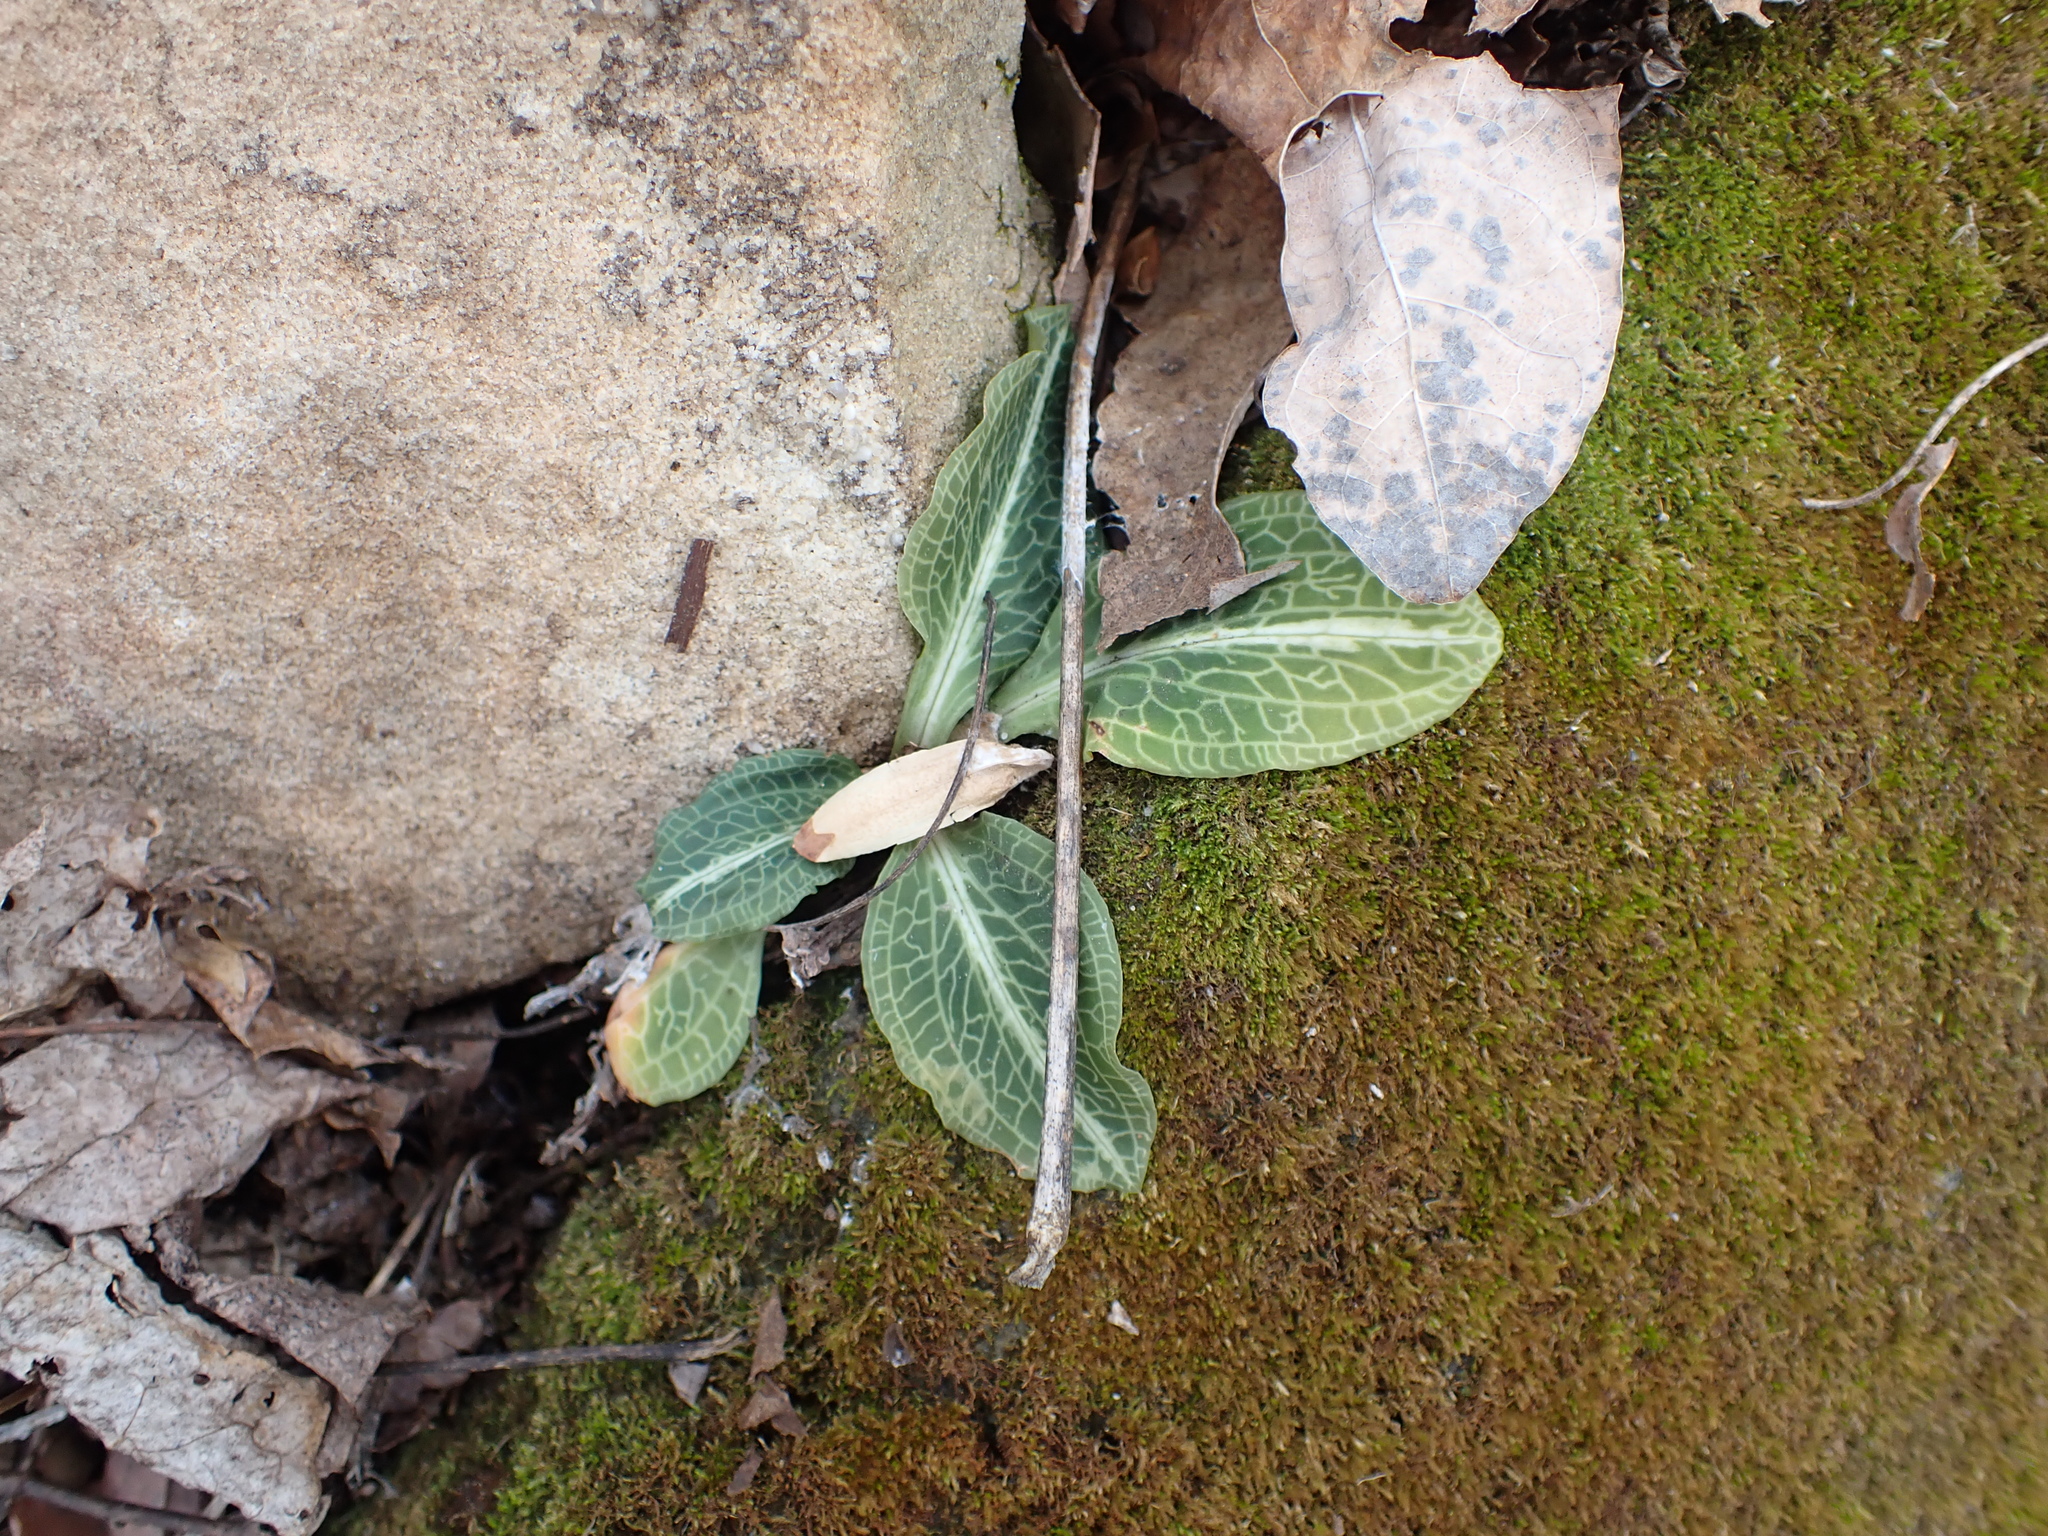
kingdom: Plantae
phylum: Tracheophyta
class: Liliopsida
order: Asparagales
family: Orchidaceae
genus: Goodyera
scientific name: Goodyera pubescens
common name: Downy rattlesnake-plantain
